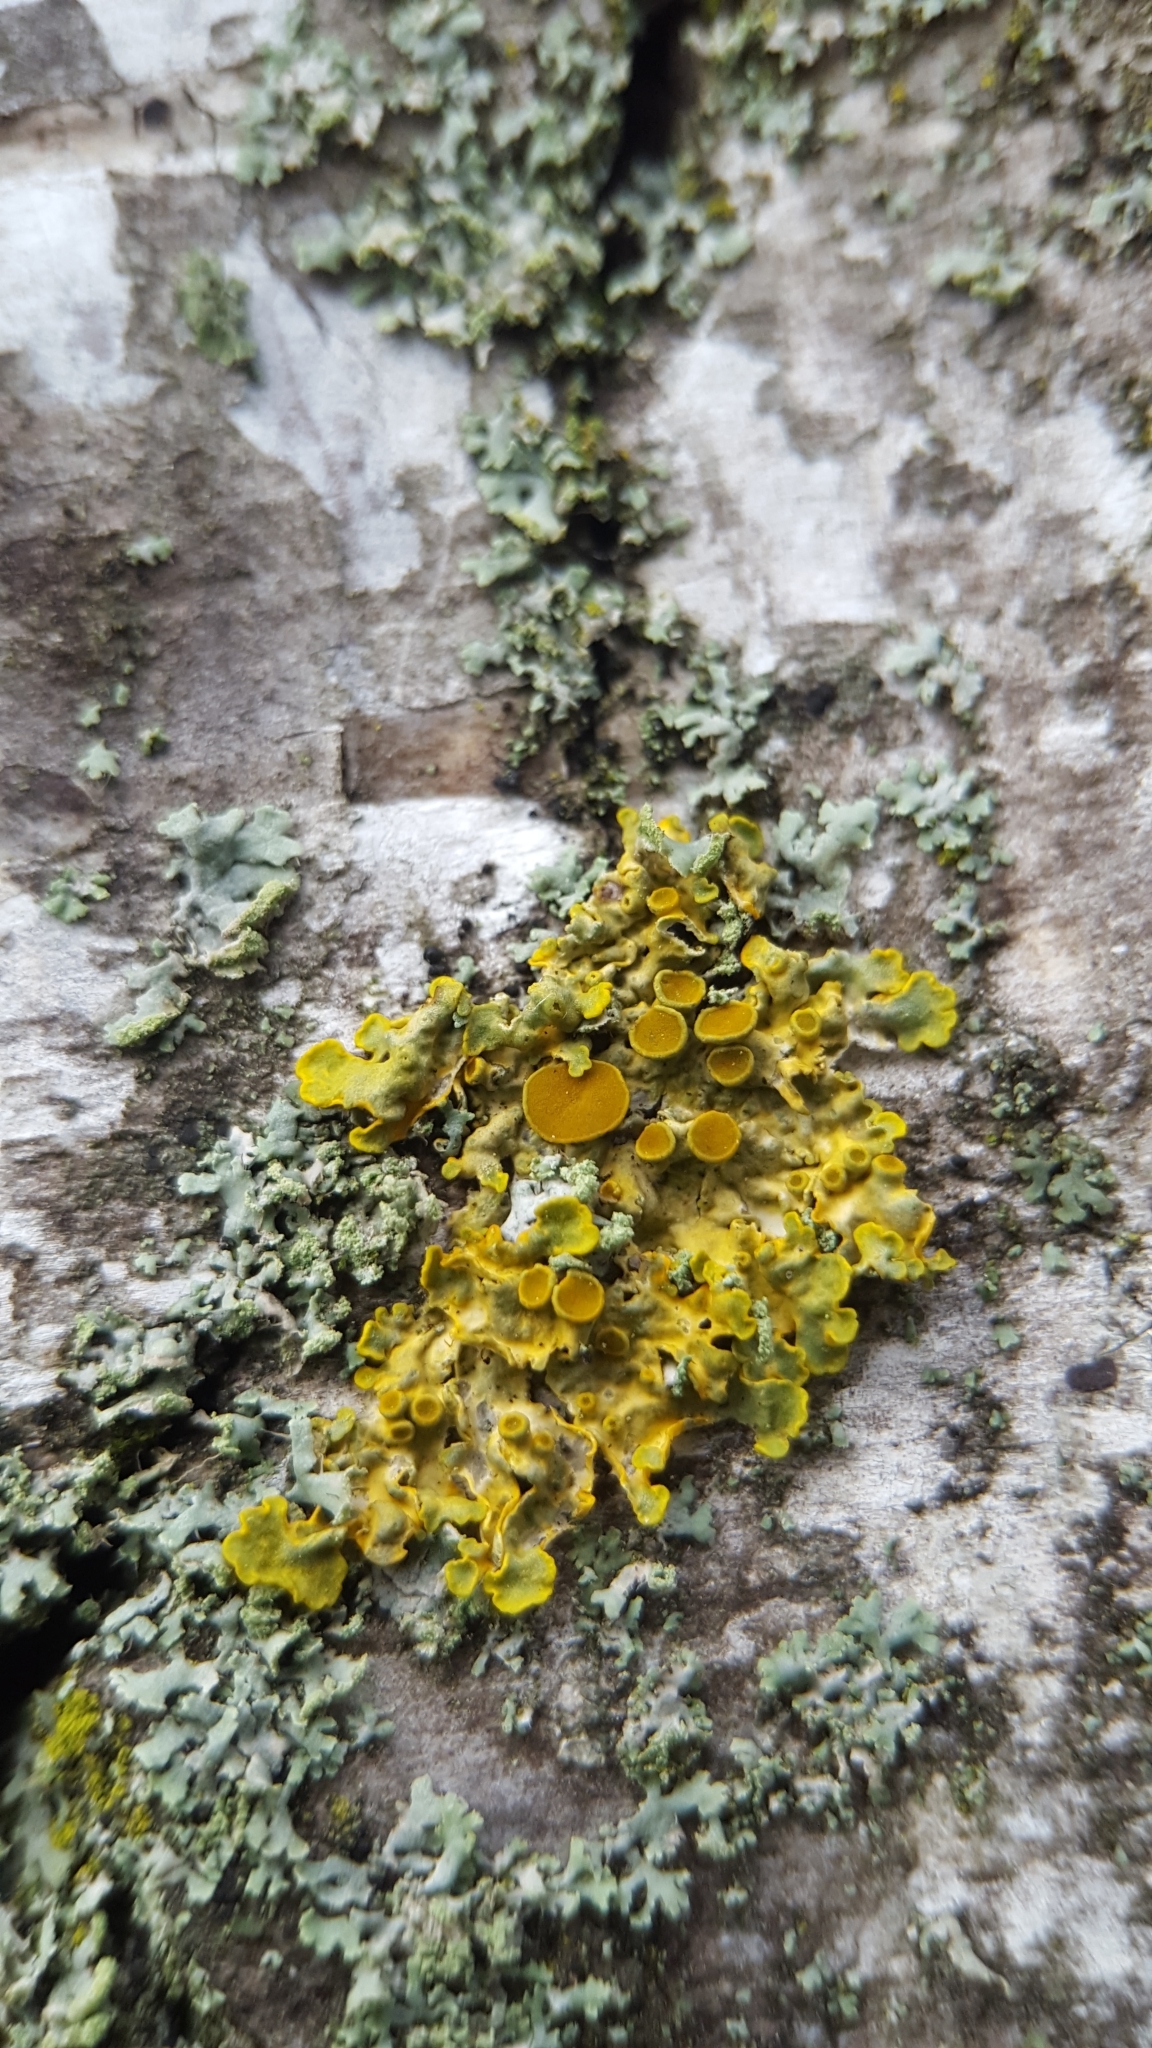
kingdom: Fungi
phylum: Ascomycota
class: Lecanoromycetes
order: Teloschistales
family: Teloschistaceae
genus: Xanthoria
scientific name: Xanthoria parietina
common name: Common orange lichen
